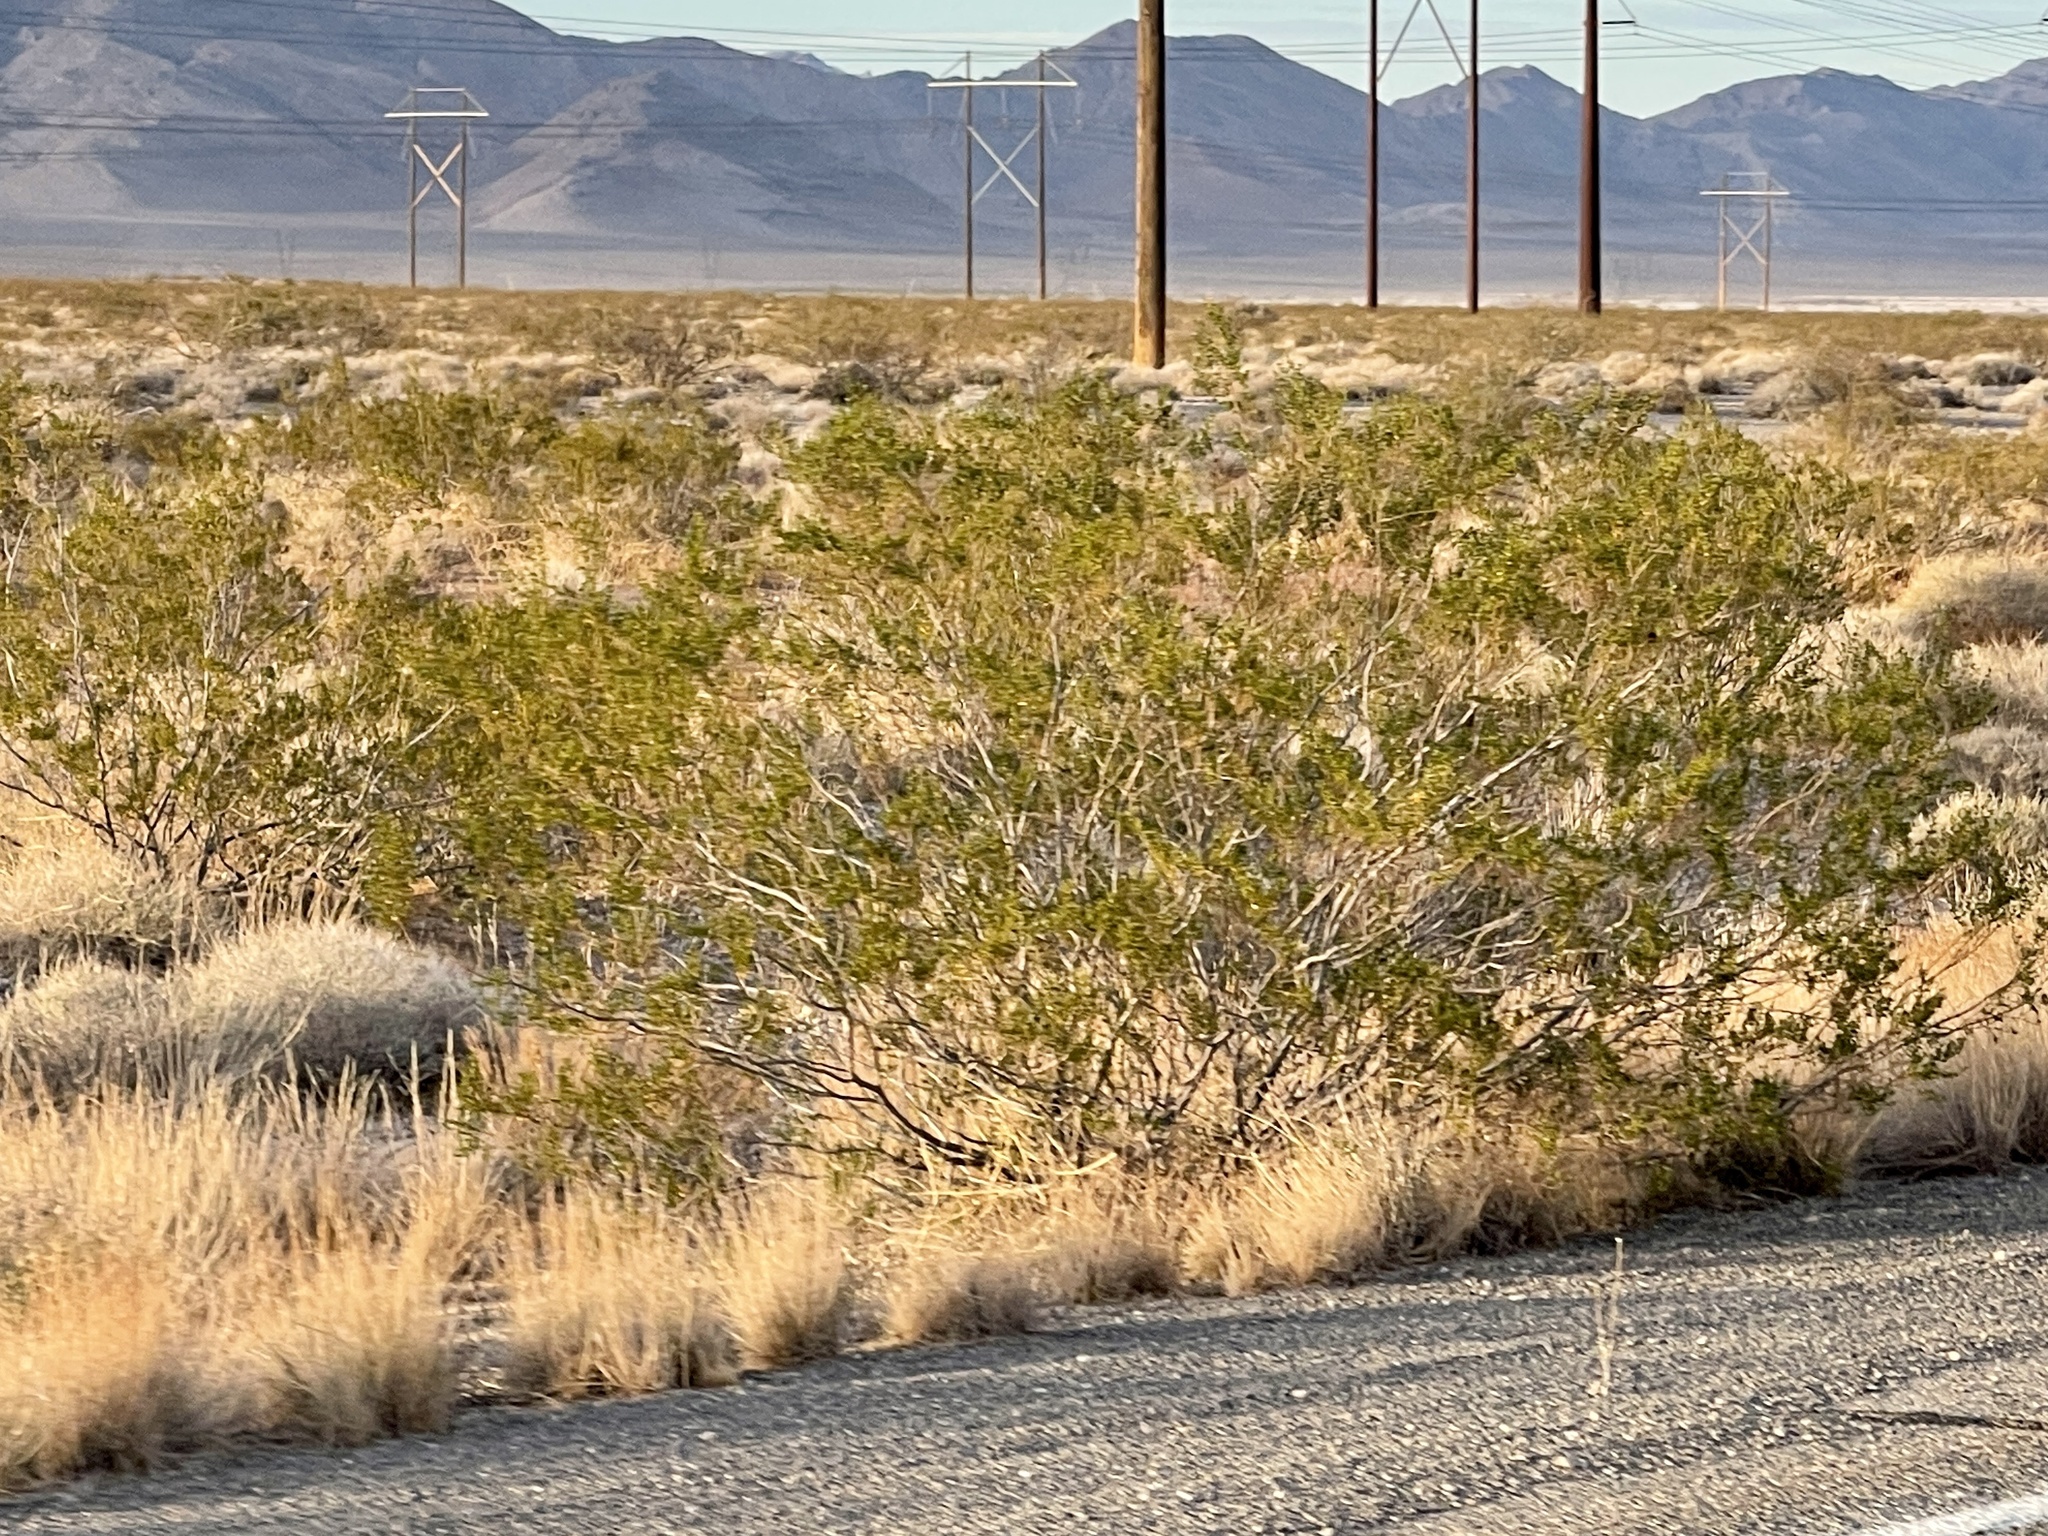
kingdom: Plantae
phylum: Tracheophyta
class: Magnoliopsida
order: Zygophyllales
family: Zygophyllaceae
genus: Larrea
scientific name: Larrea tridentata
